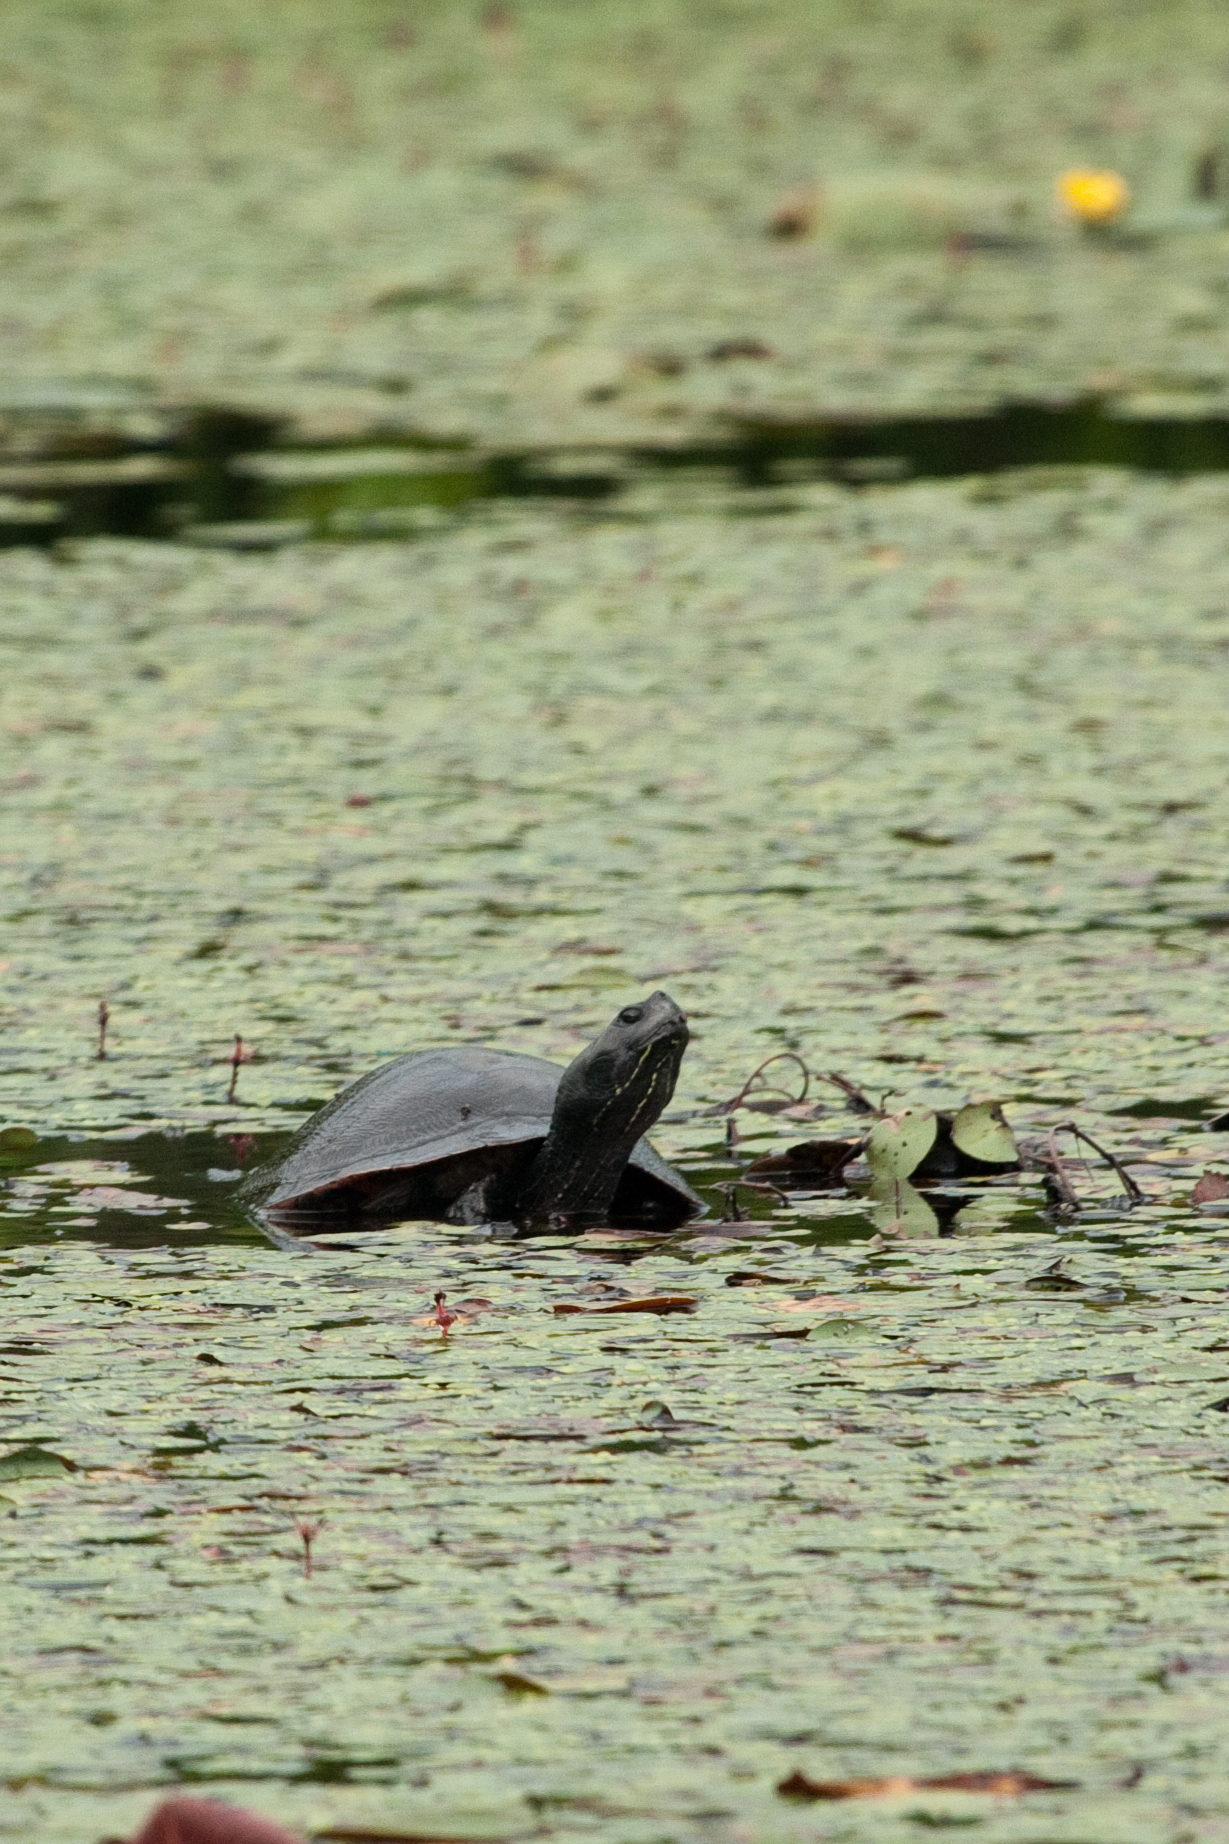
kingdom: Animalia
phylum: Chordata
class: Testudines
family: Emydidae
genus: Pseudemys
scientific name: Pseudemys rubriventris
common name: American red-bellied turtle
